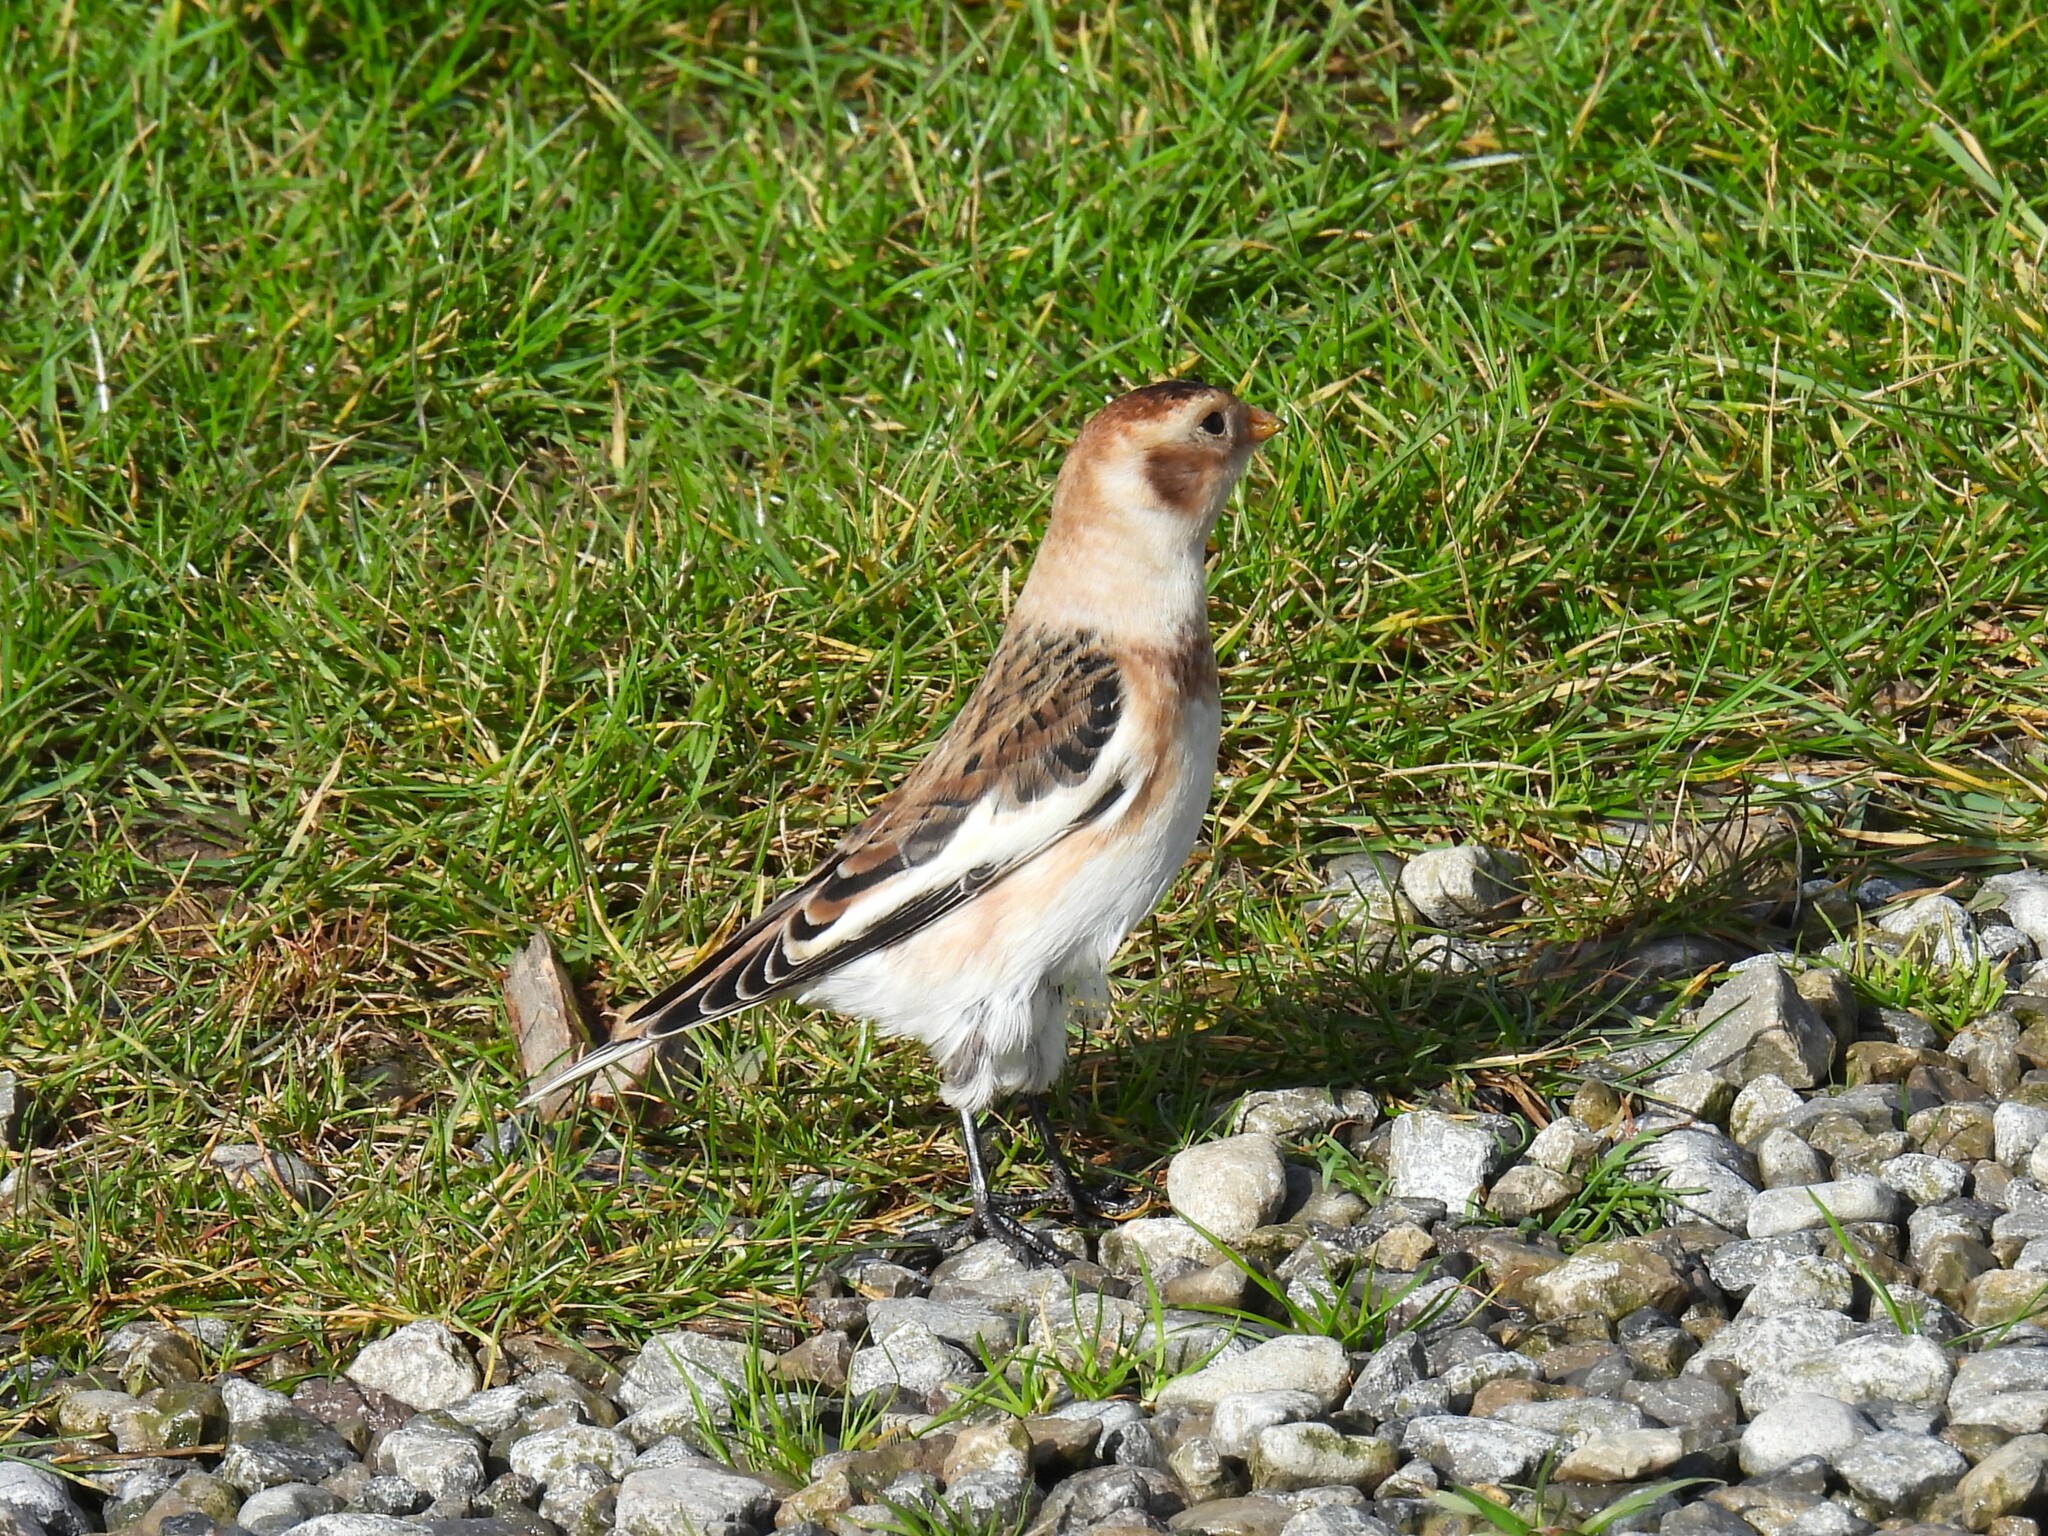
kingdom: Animalia
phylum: Chordata
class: Aves
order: Passeriformes
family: Calcariidae
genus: Plectrophenax
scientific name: Plectrophenax nivalis
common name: Snow bunting
